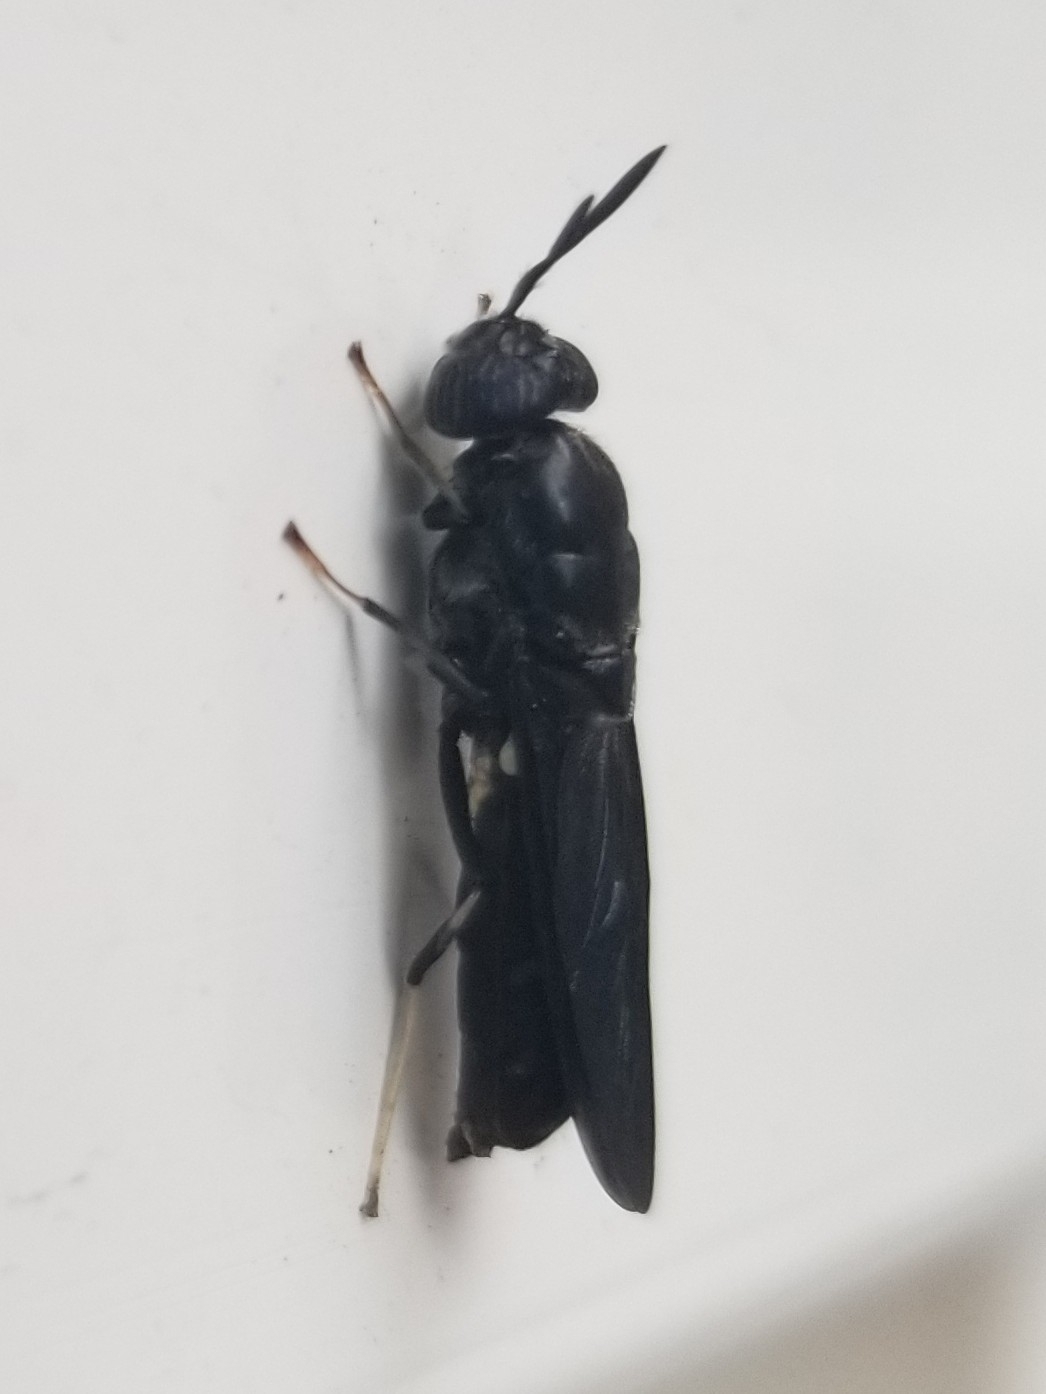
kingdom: Animalia
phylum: Arthropoda
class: Insecta
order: Diptera
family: Stratiomyidae
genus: Hermetia
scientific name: Hermetia illucens
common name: Black soldier fly
